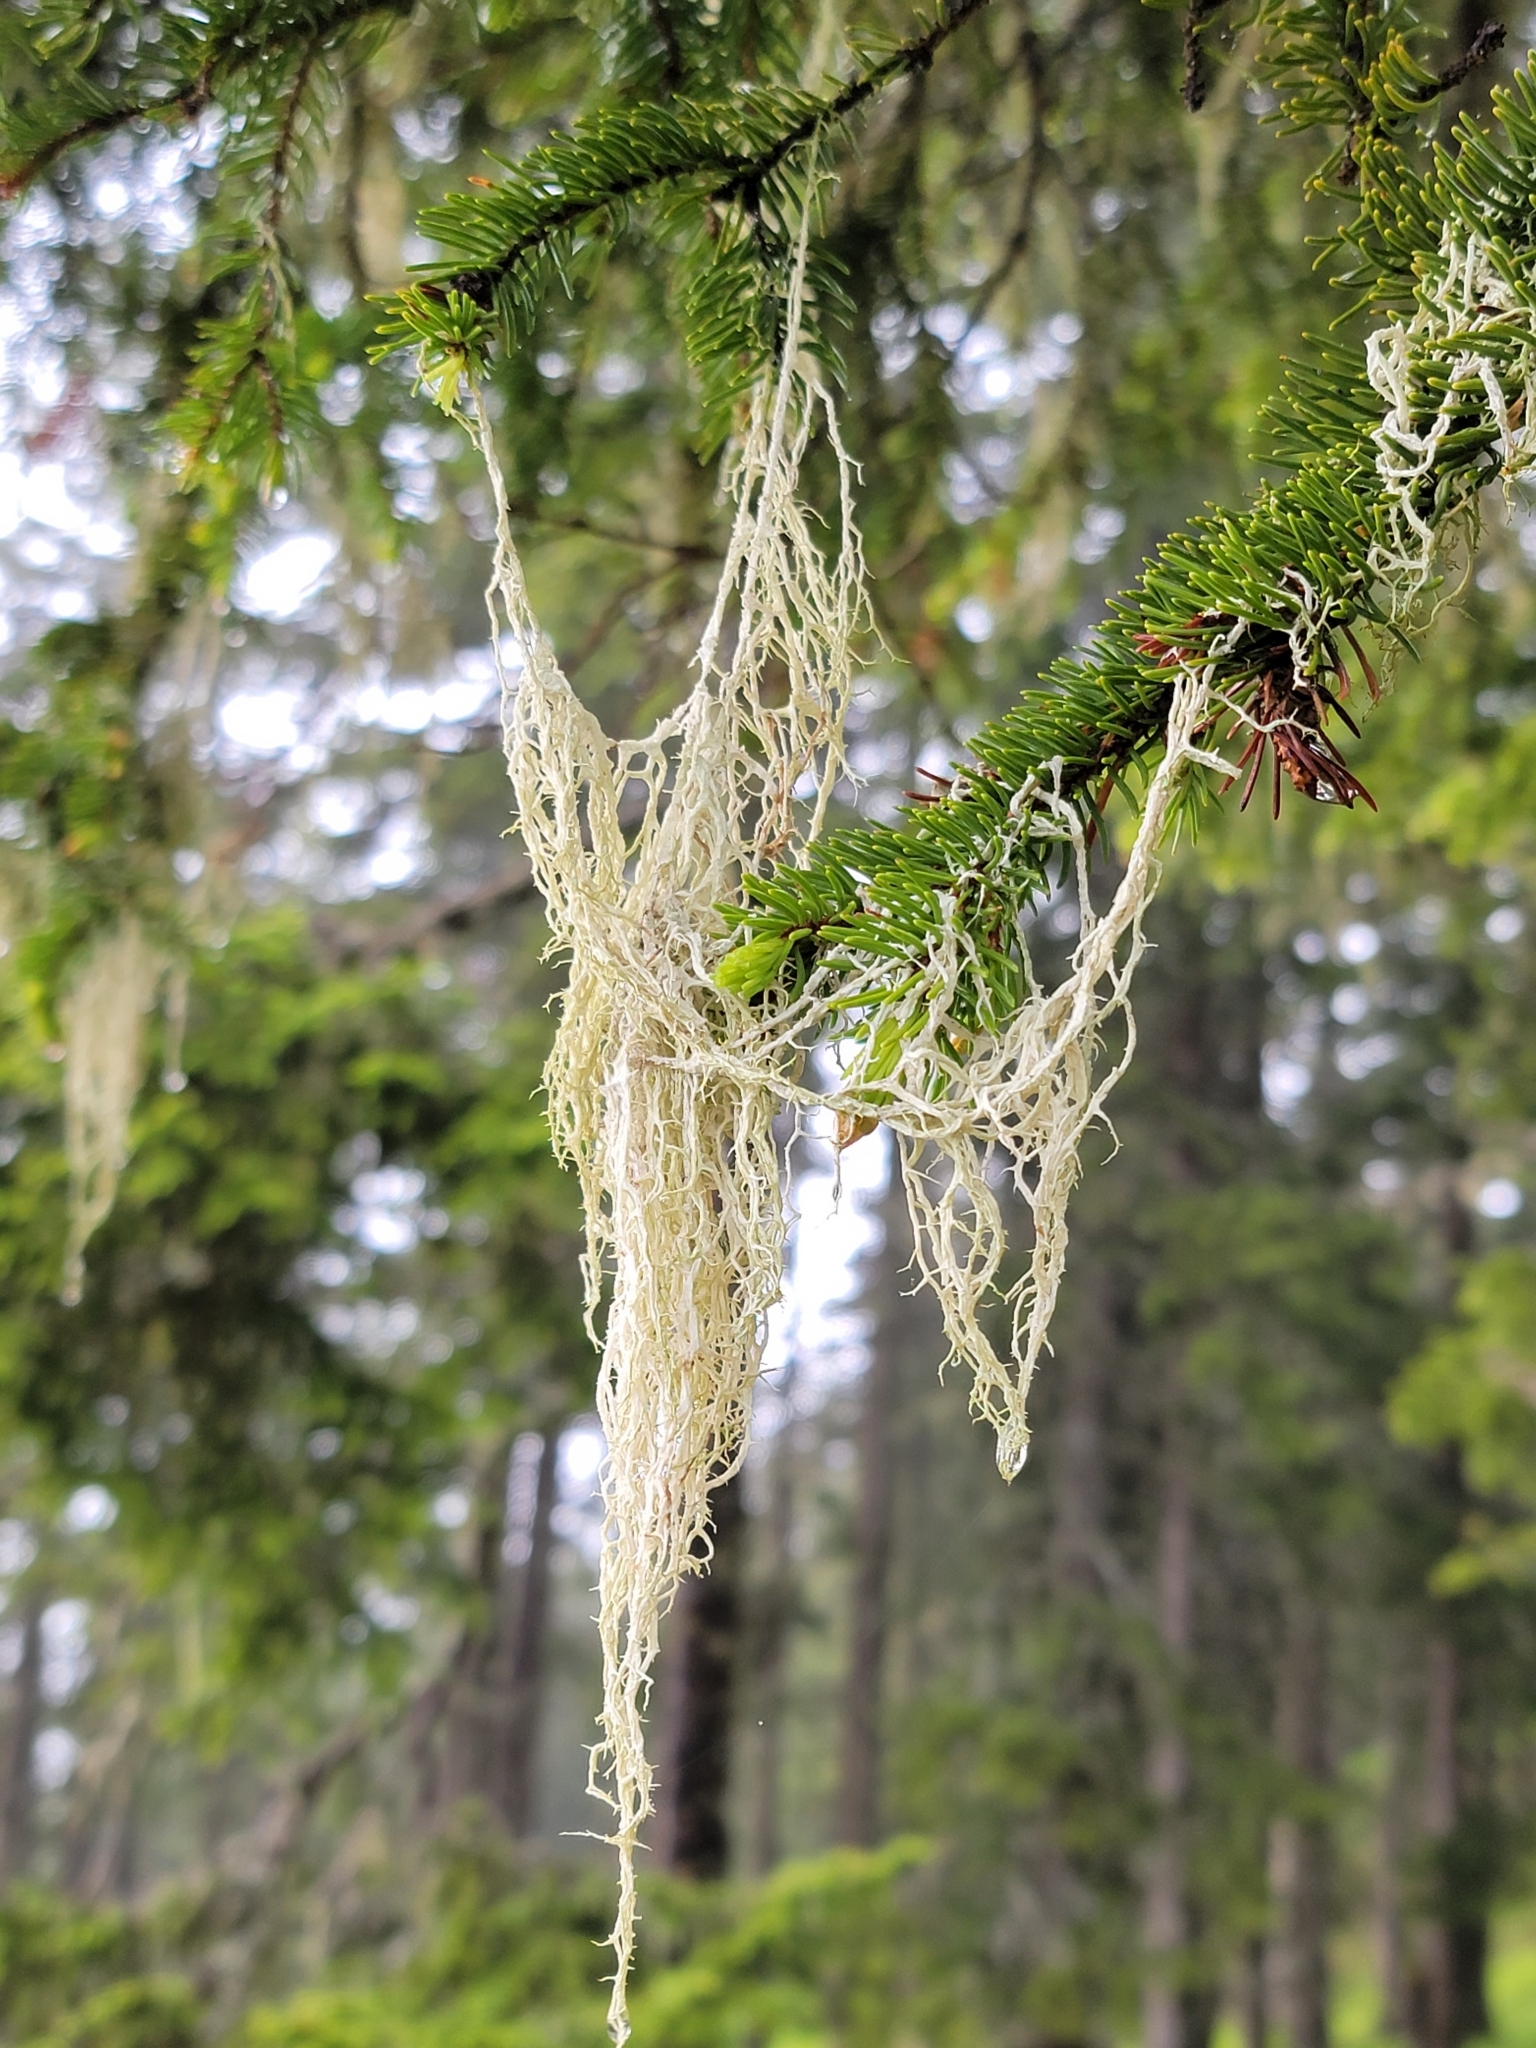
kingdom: Fungi
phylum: Ascomycota
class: Lecanoromycetes
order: Lecanorales
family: Parmeliaceae
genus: Evernia
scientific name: Evernia divaricata
